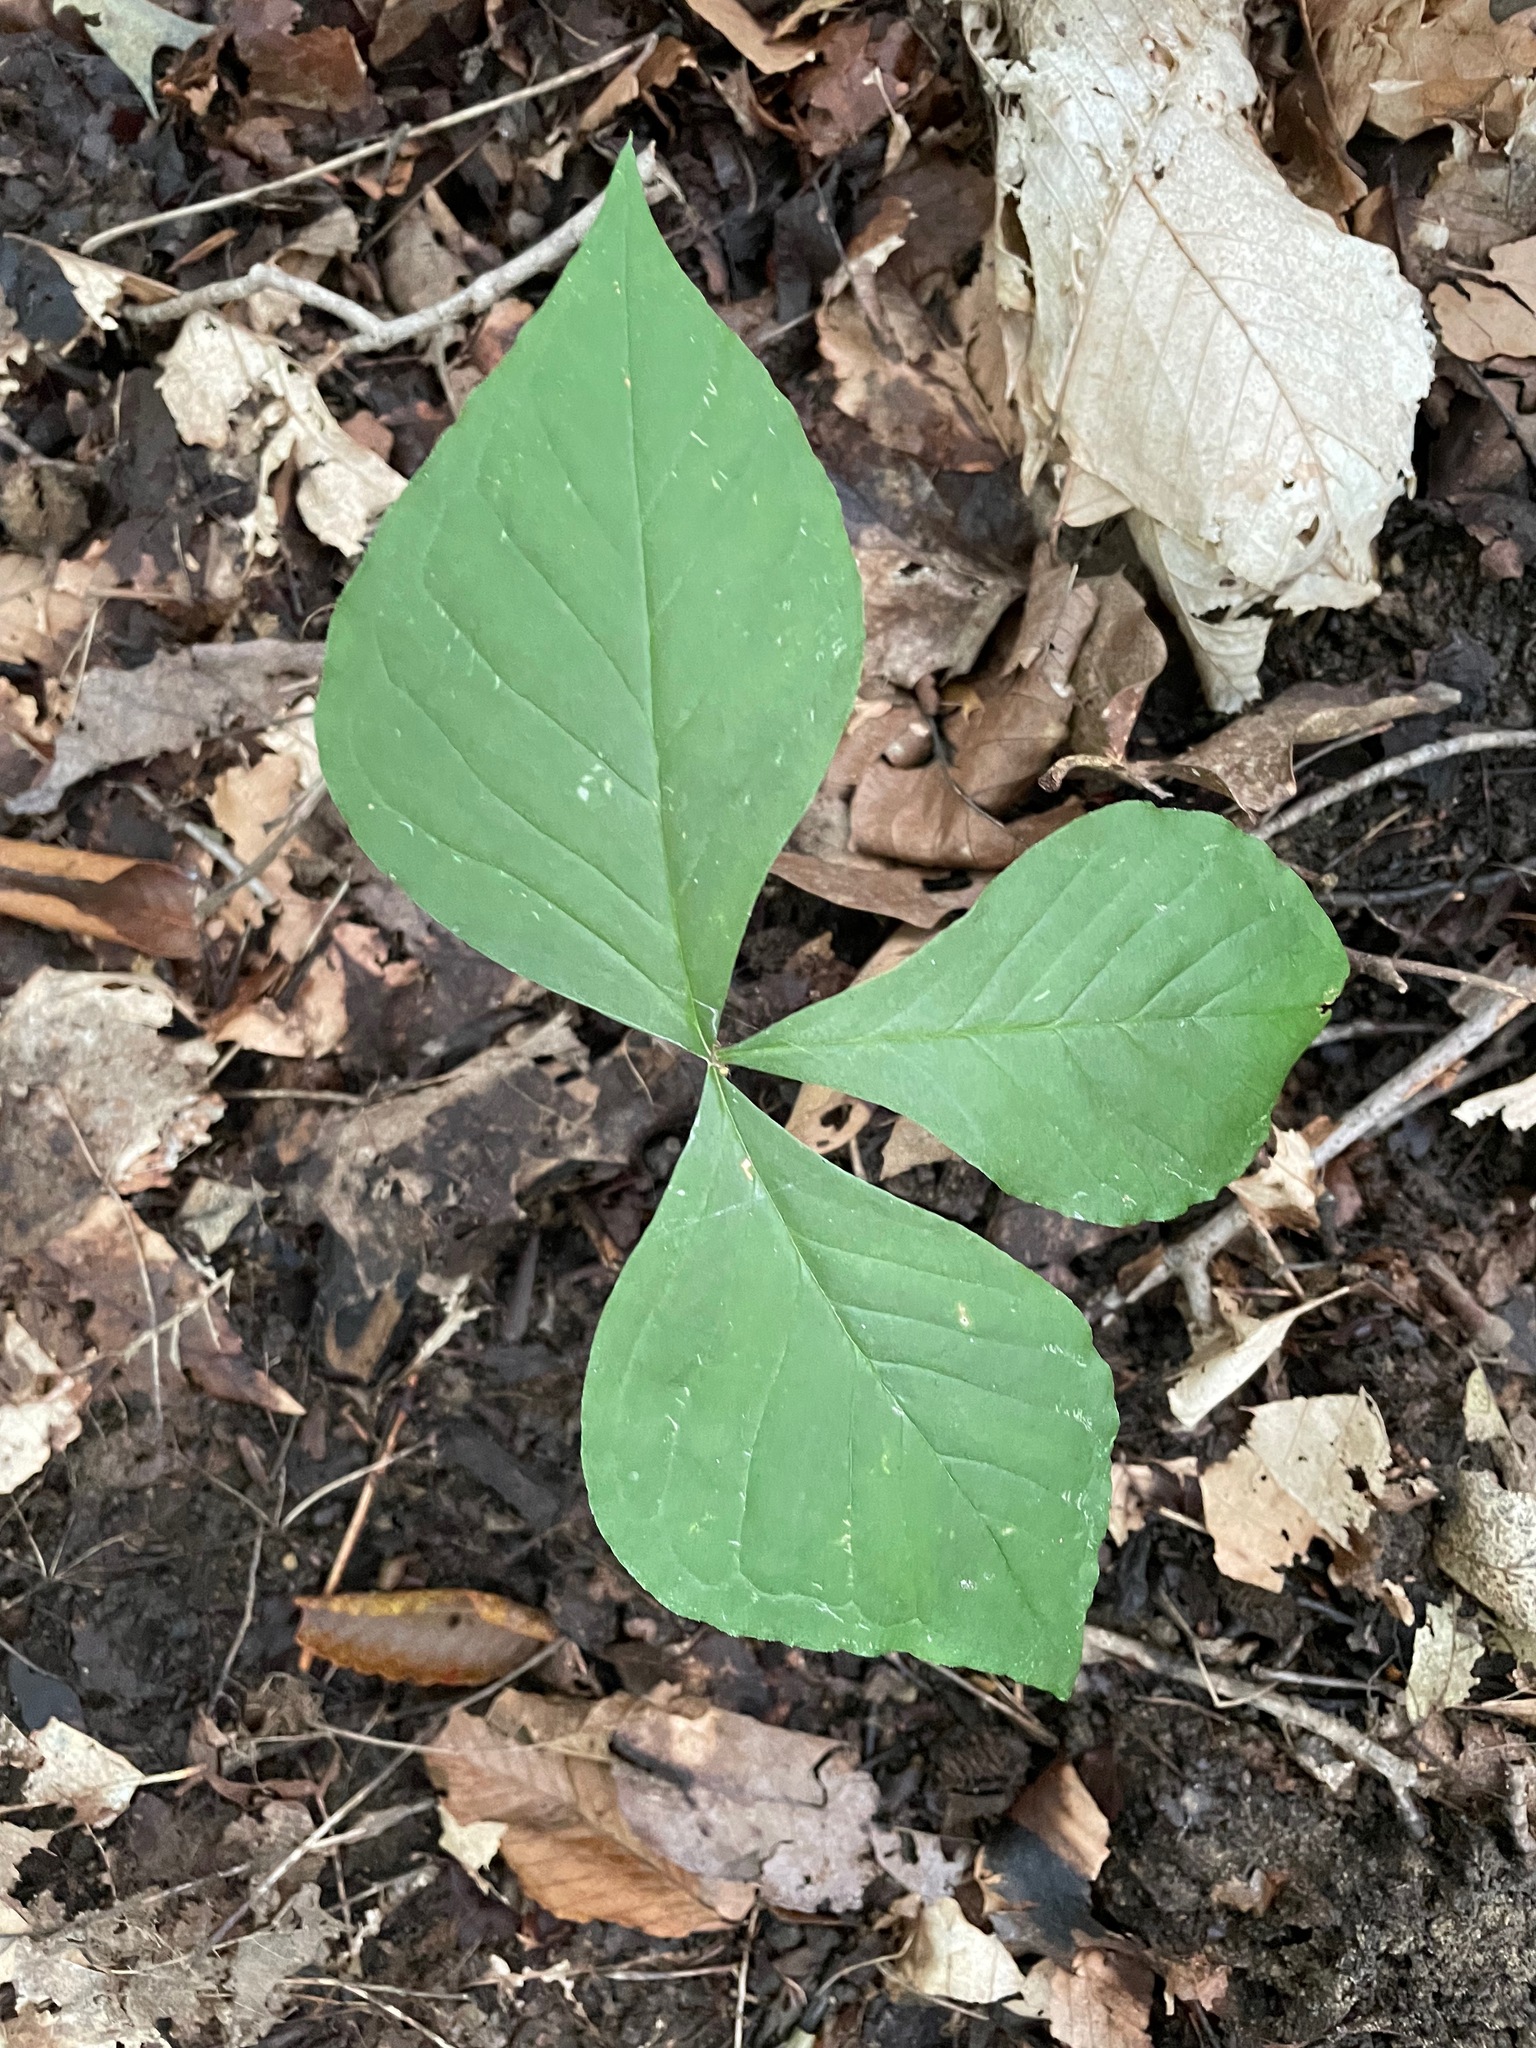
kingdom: Plantae
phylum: Tracheophyta
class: Liliopsida
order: Alismatales
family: Araceae
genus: Arisaema
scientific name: Arisaema
